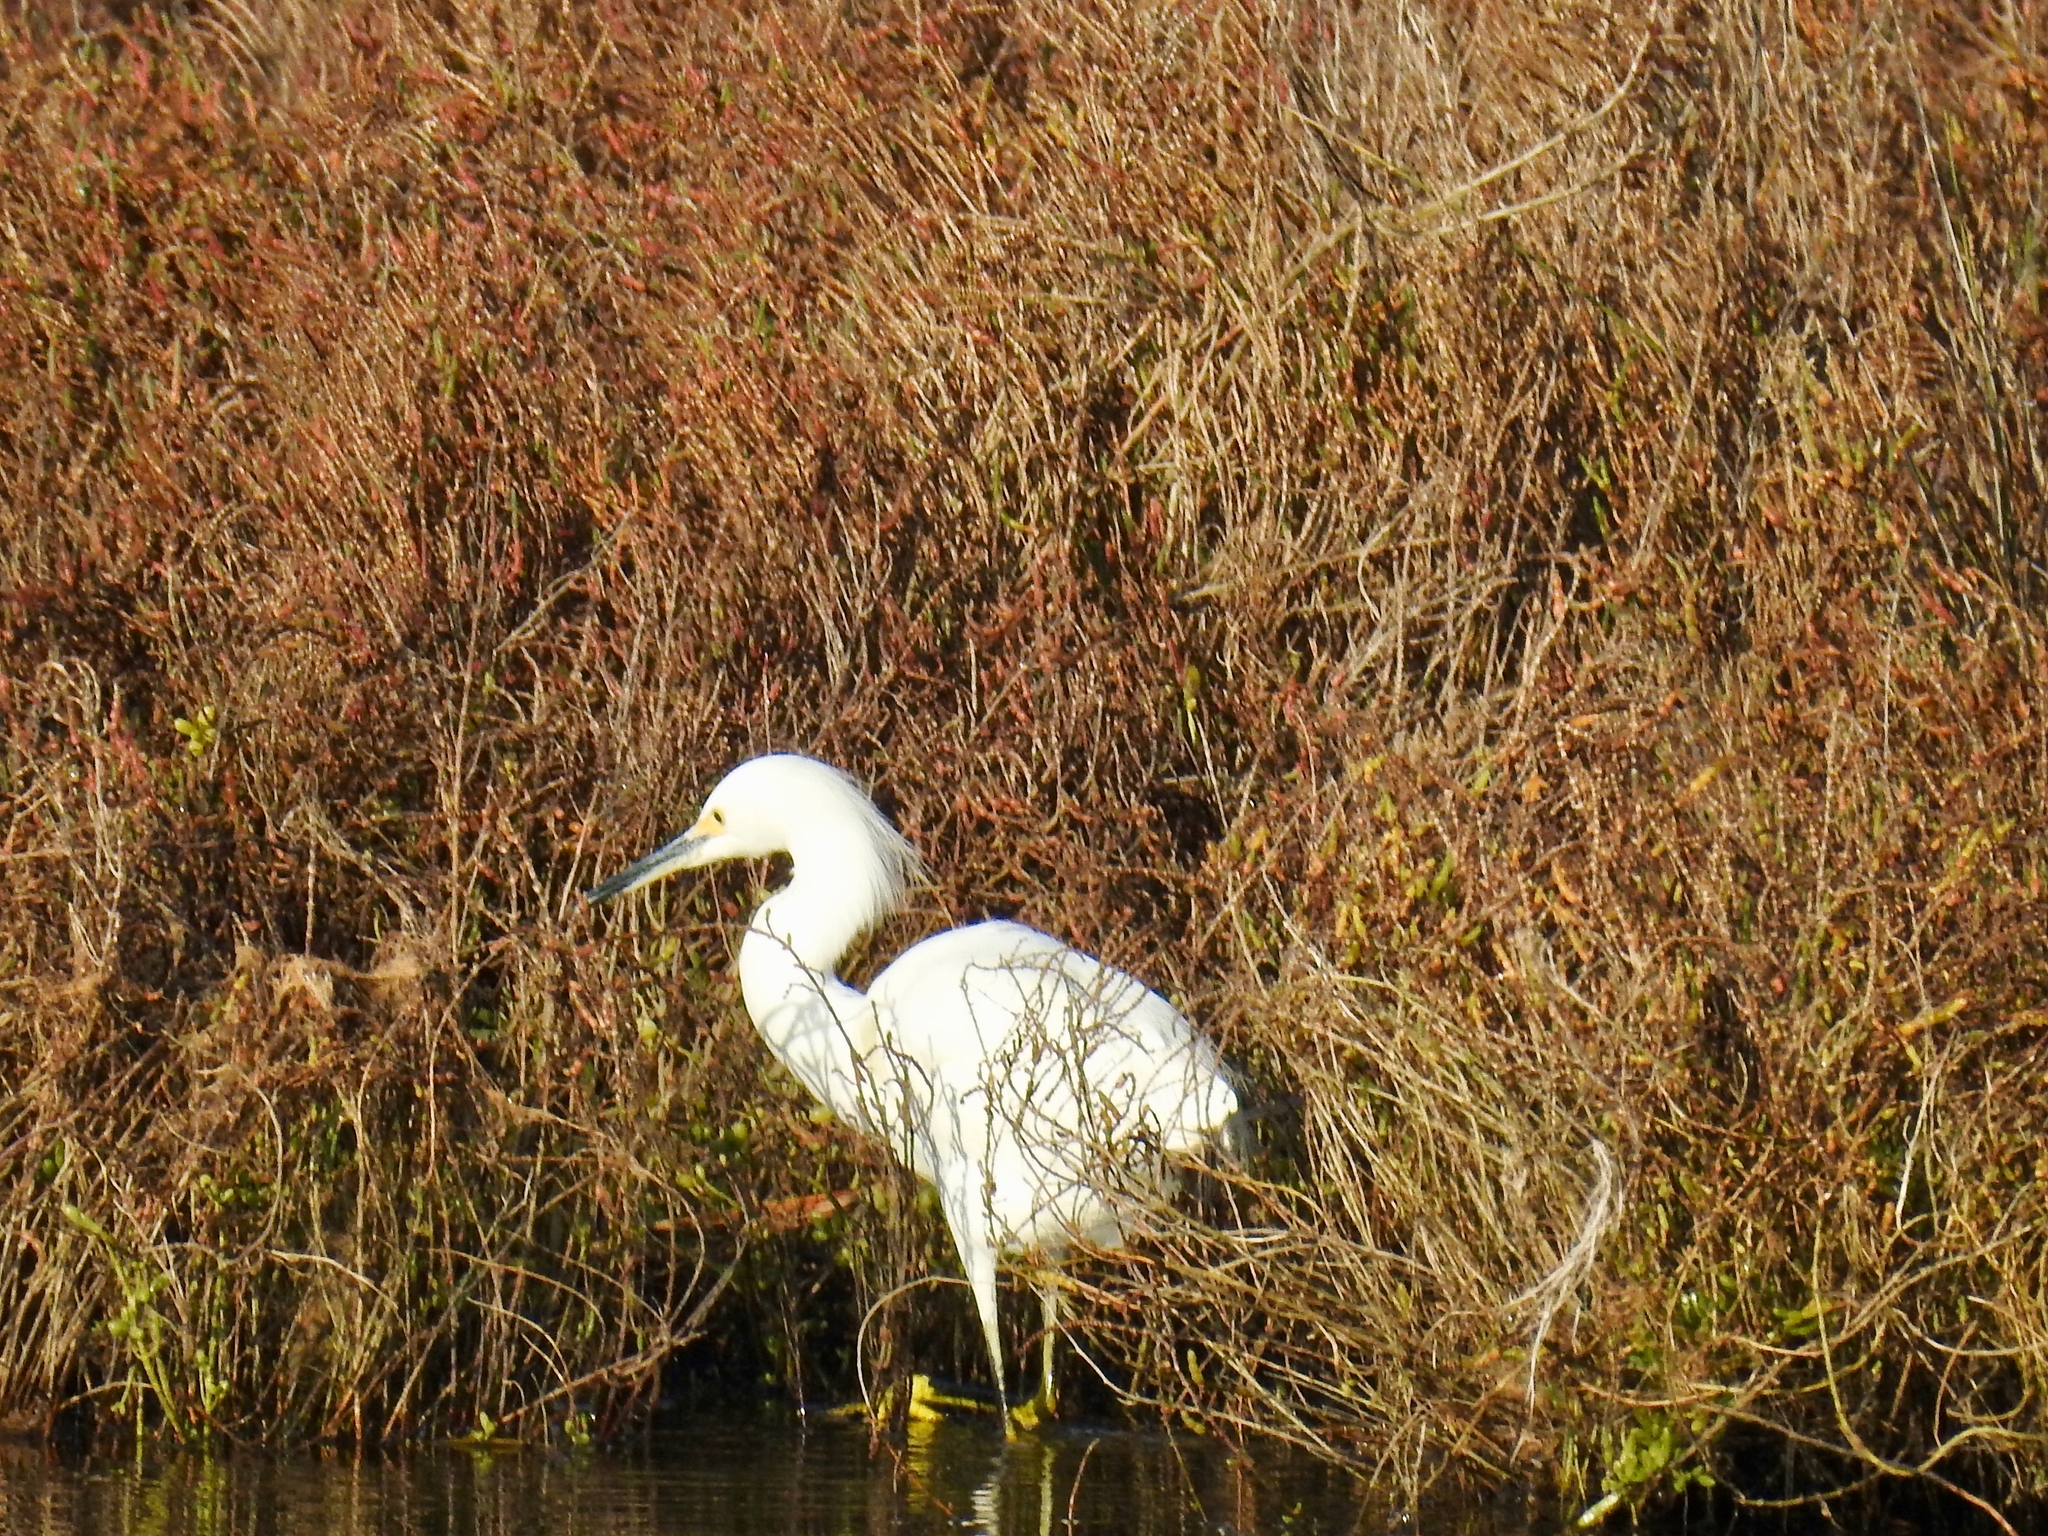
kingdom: Animalia
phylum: Chordata
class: Aves
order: Pelecaniformes
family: Ardeidae
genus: Egretta
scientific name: Egretta thula
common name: Snowy egret
